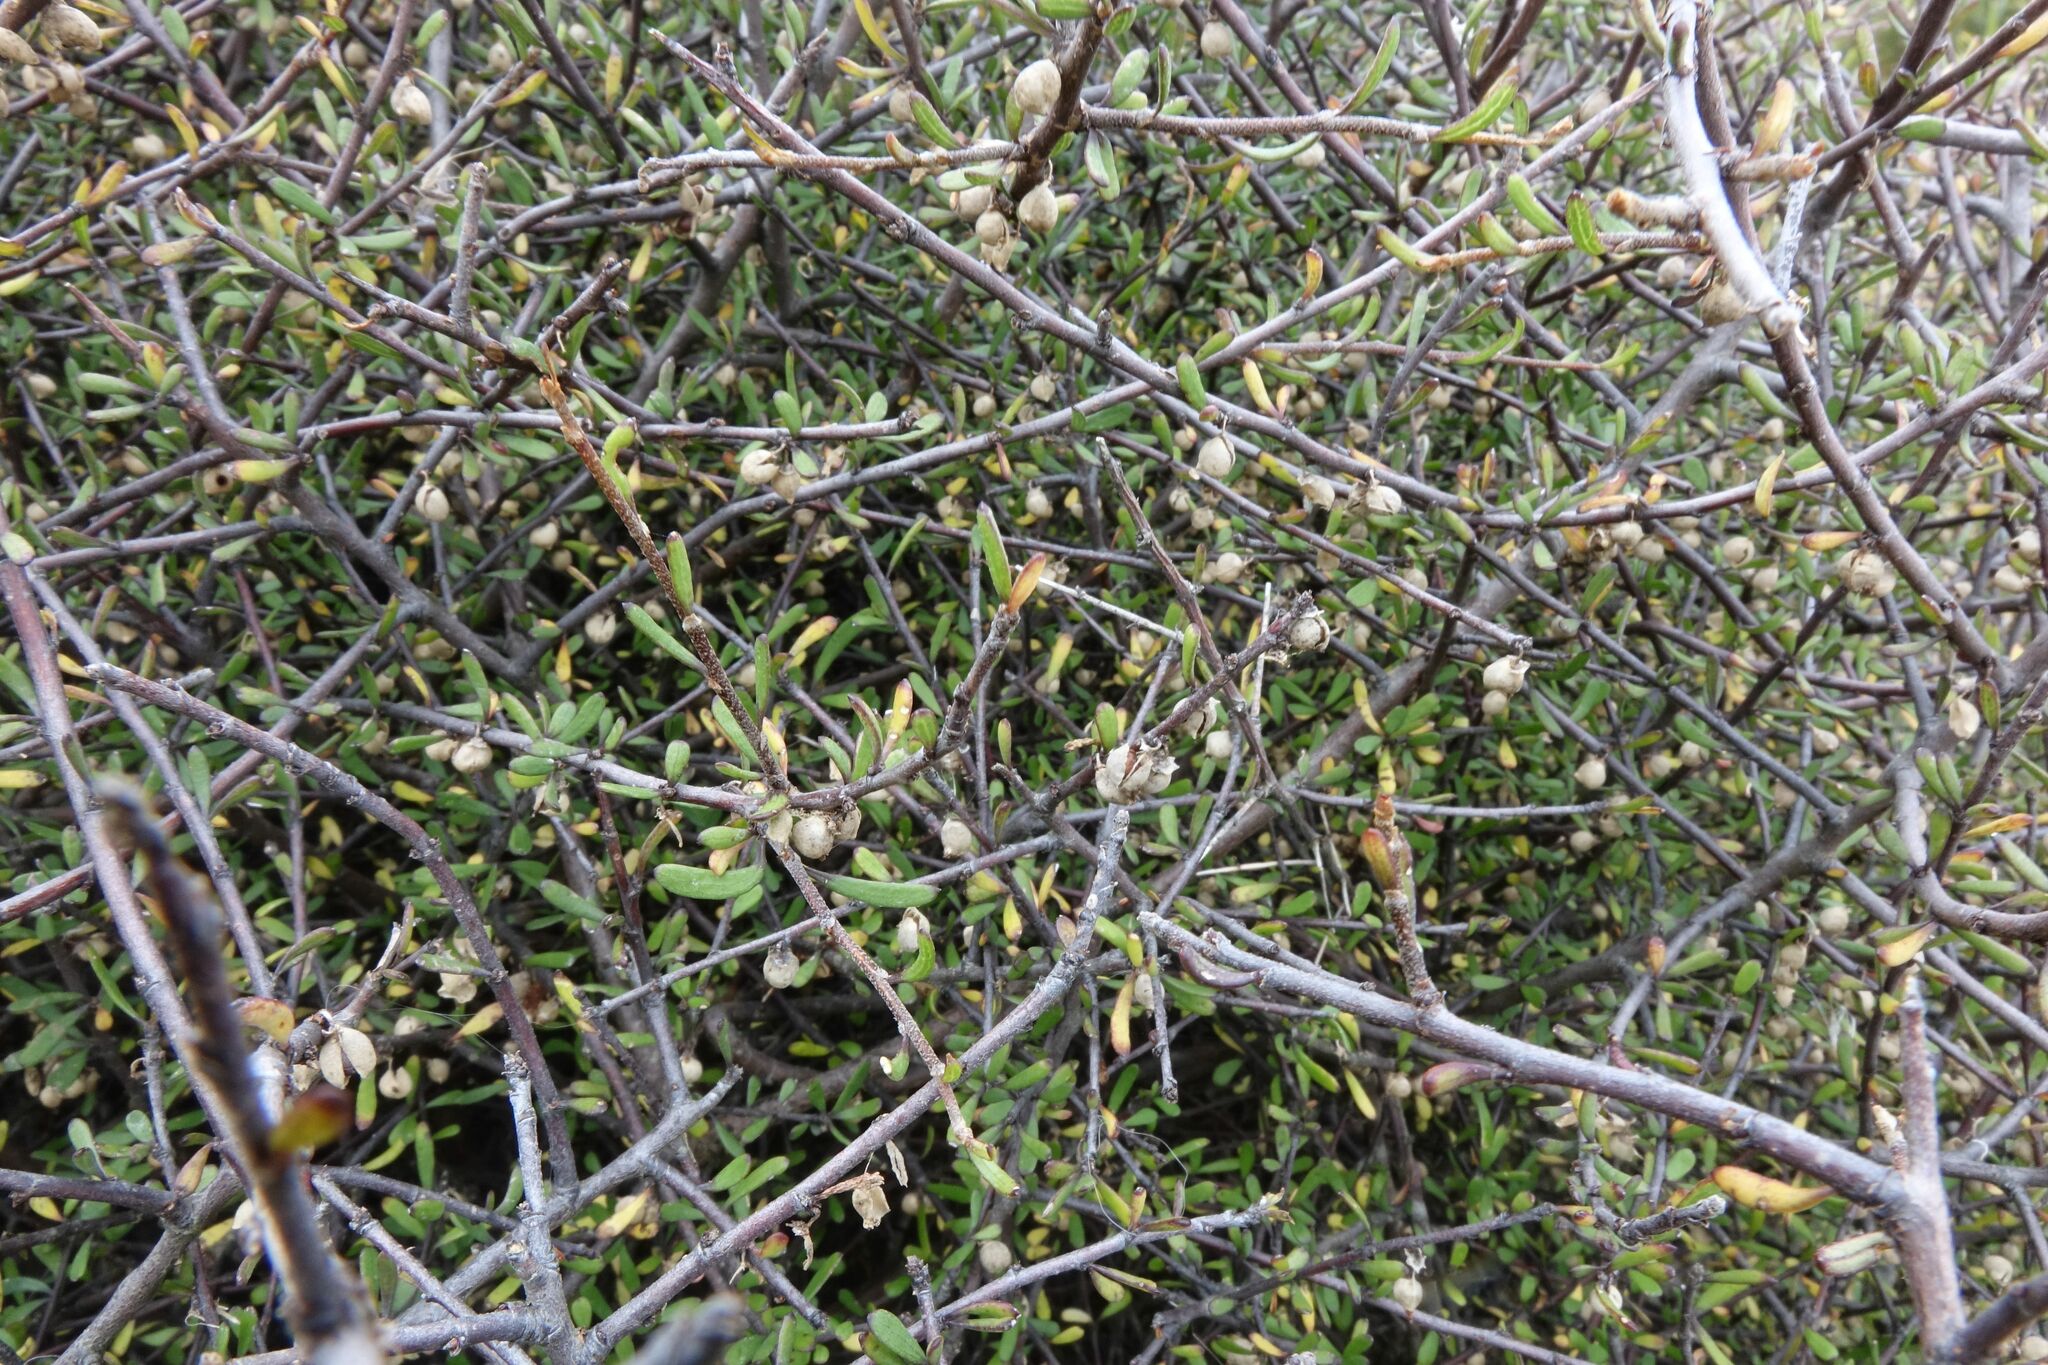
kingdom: Plantae
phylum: Tracheophyta
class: Magnoliopsida
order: Malvales
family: Malvaceae
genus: Plagianthus
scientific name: Plagianthus divaricatus
